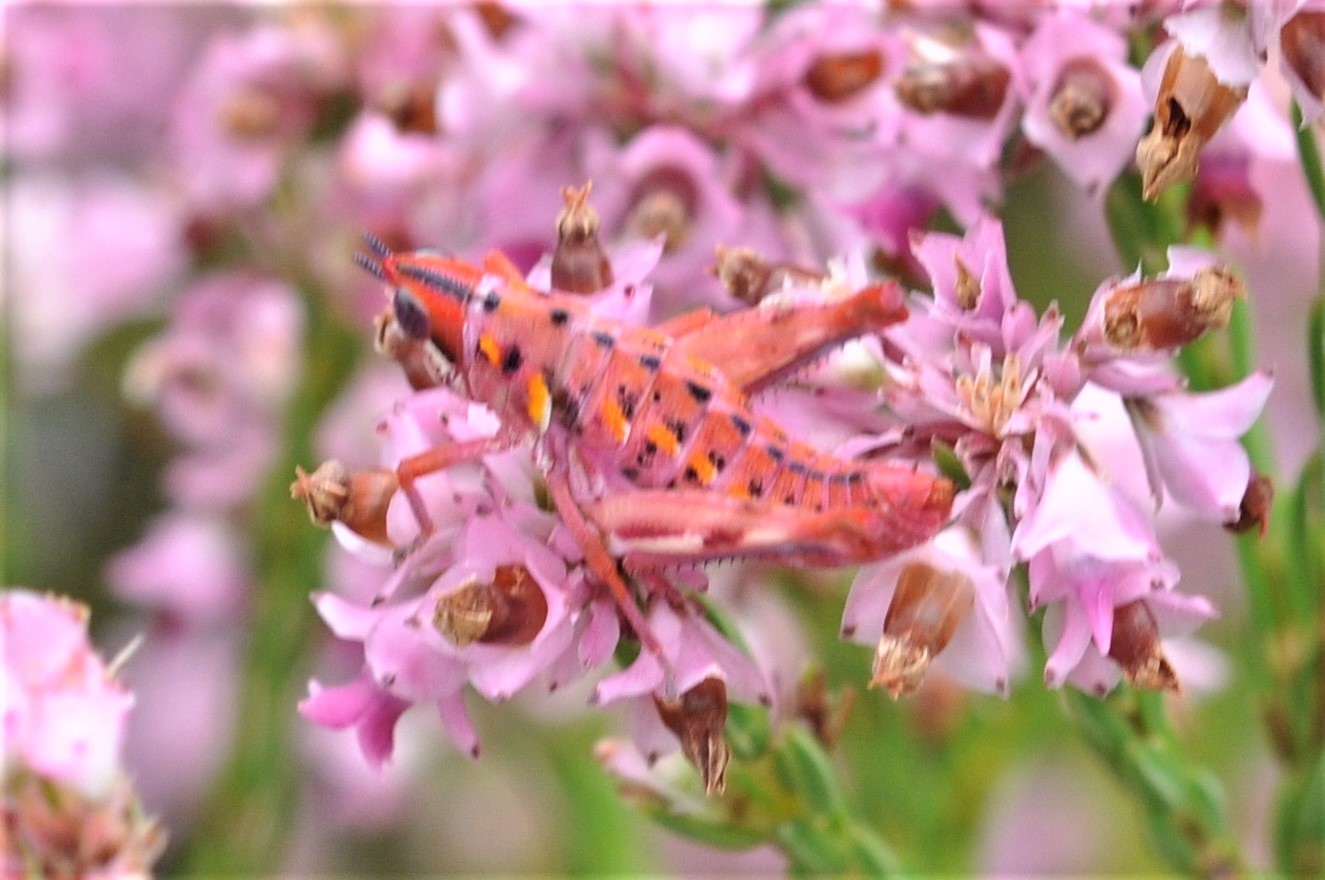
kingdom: Animalia
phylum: Arthropoda
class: Insecta
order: Orthoptera
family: Thericleidae
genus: Thericlesiella
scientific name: Thericlesiella meridionalis
